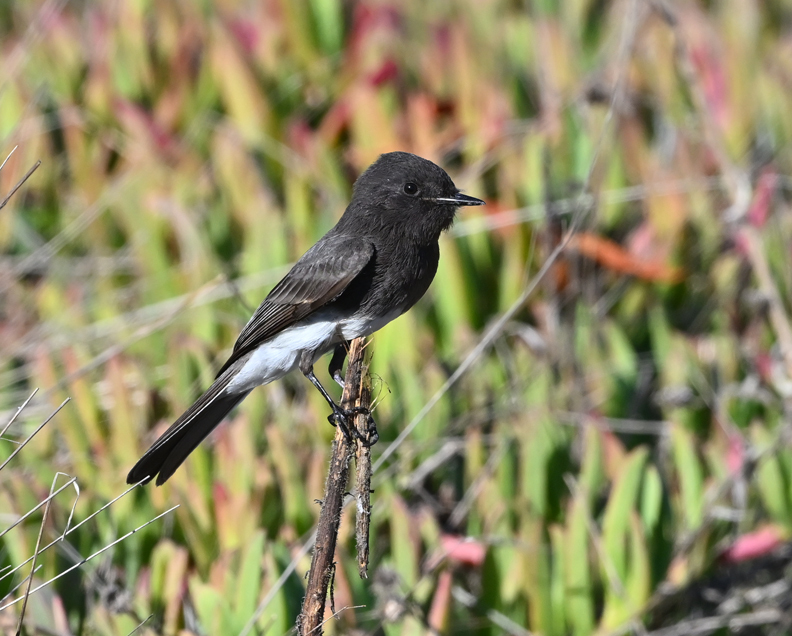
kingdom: Animalia
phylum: Chordata
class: Aves
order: Passeriformes
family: Tyrannidae
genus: Sayornis
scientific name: Sayornis nigricans
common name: Black phoebe
